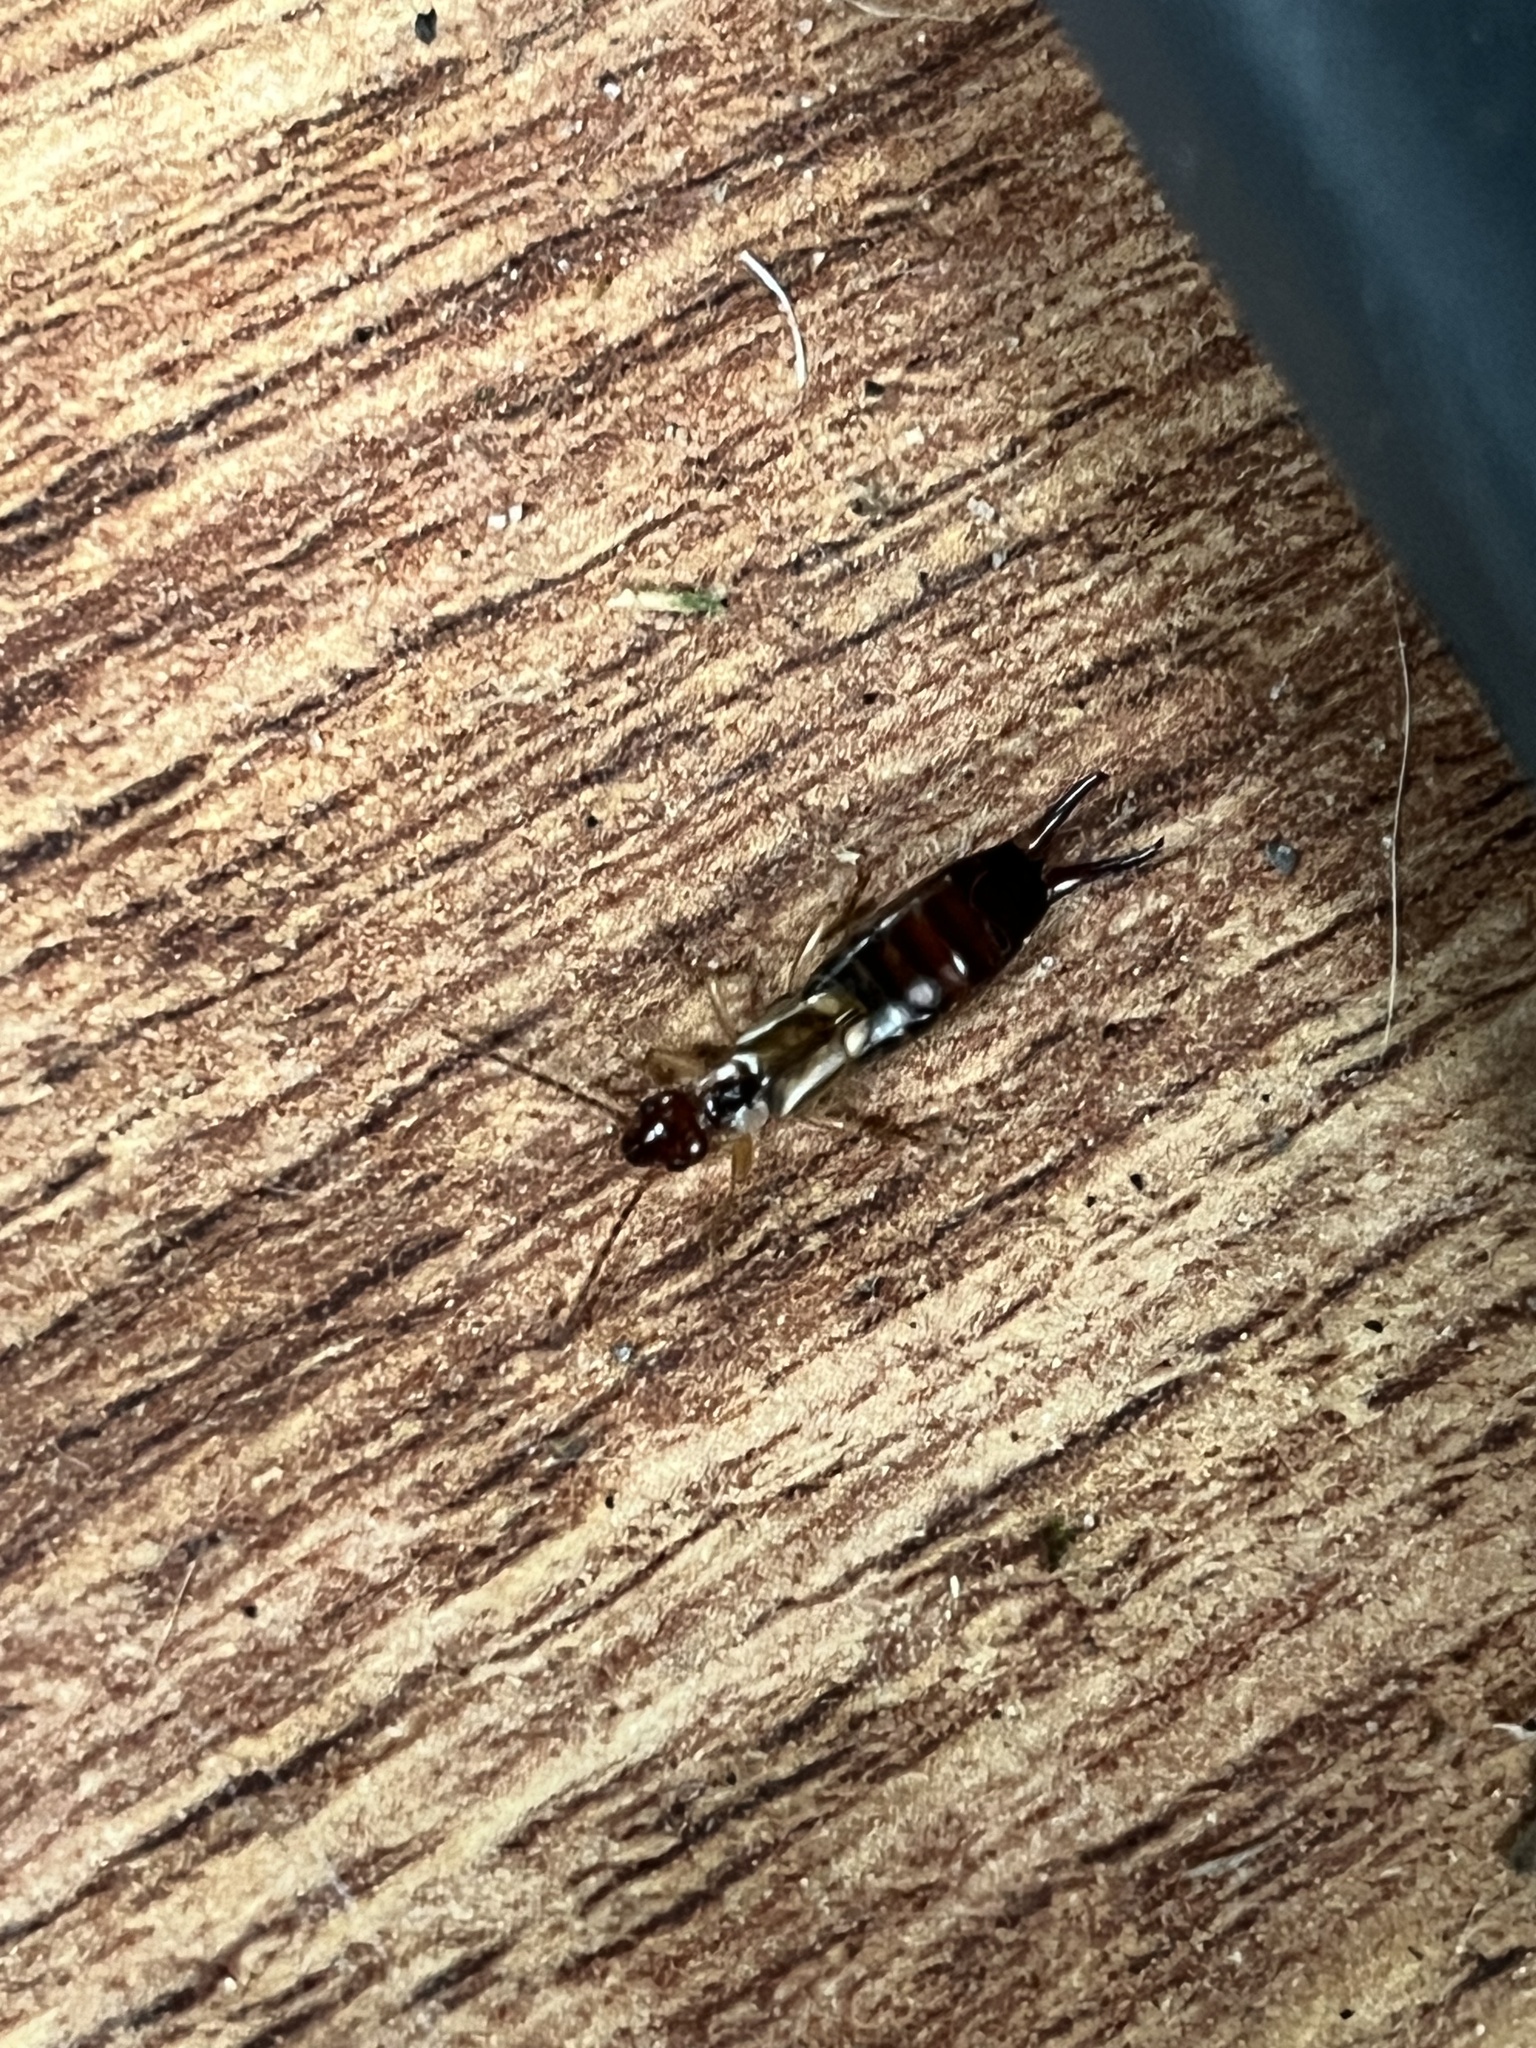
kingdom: Animalia
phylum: Arthropoda
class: Insecta
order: Dermaptera
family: Forficulidae
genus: Forficula
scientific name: Forficula
